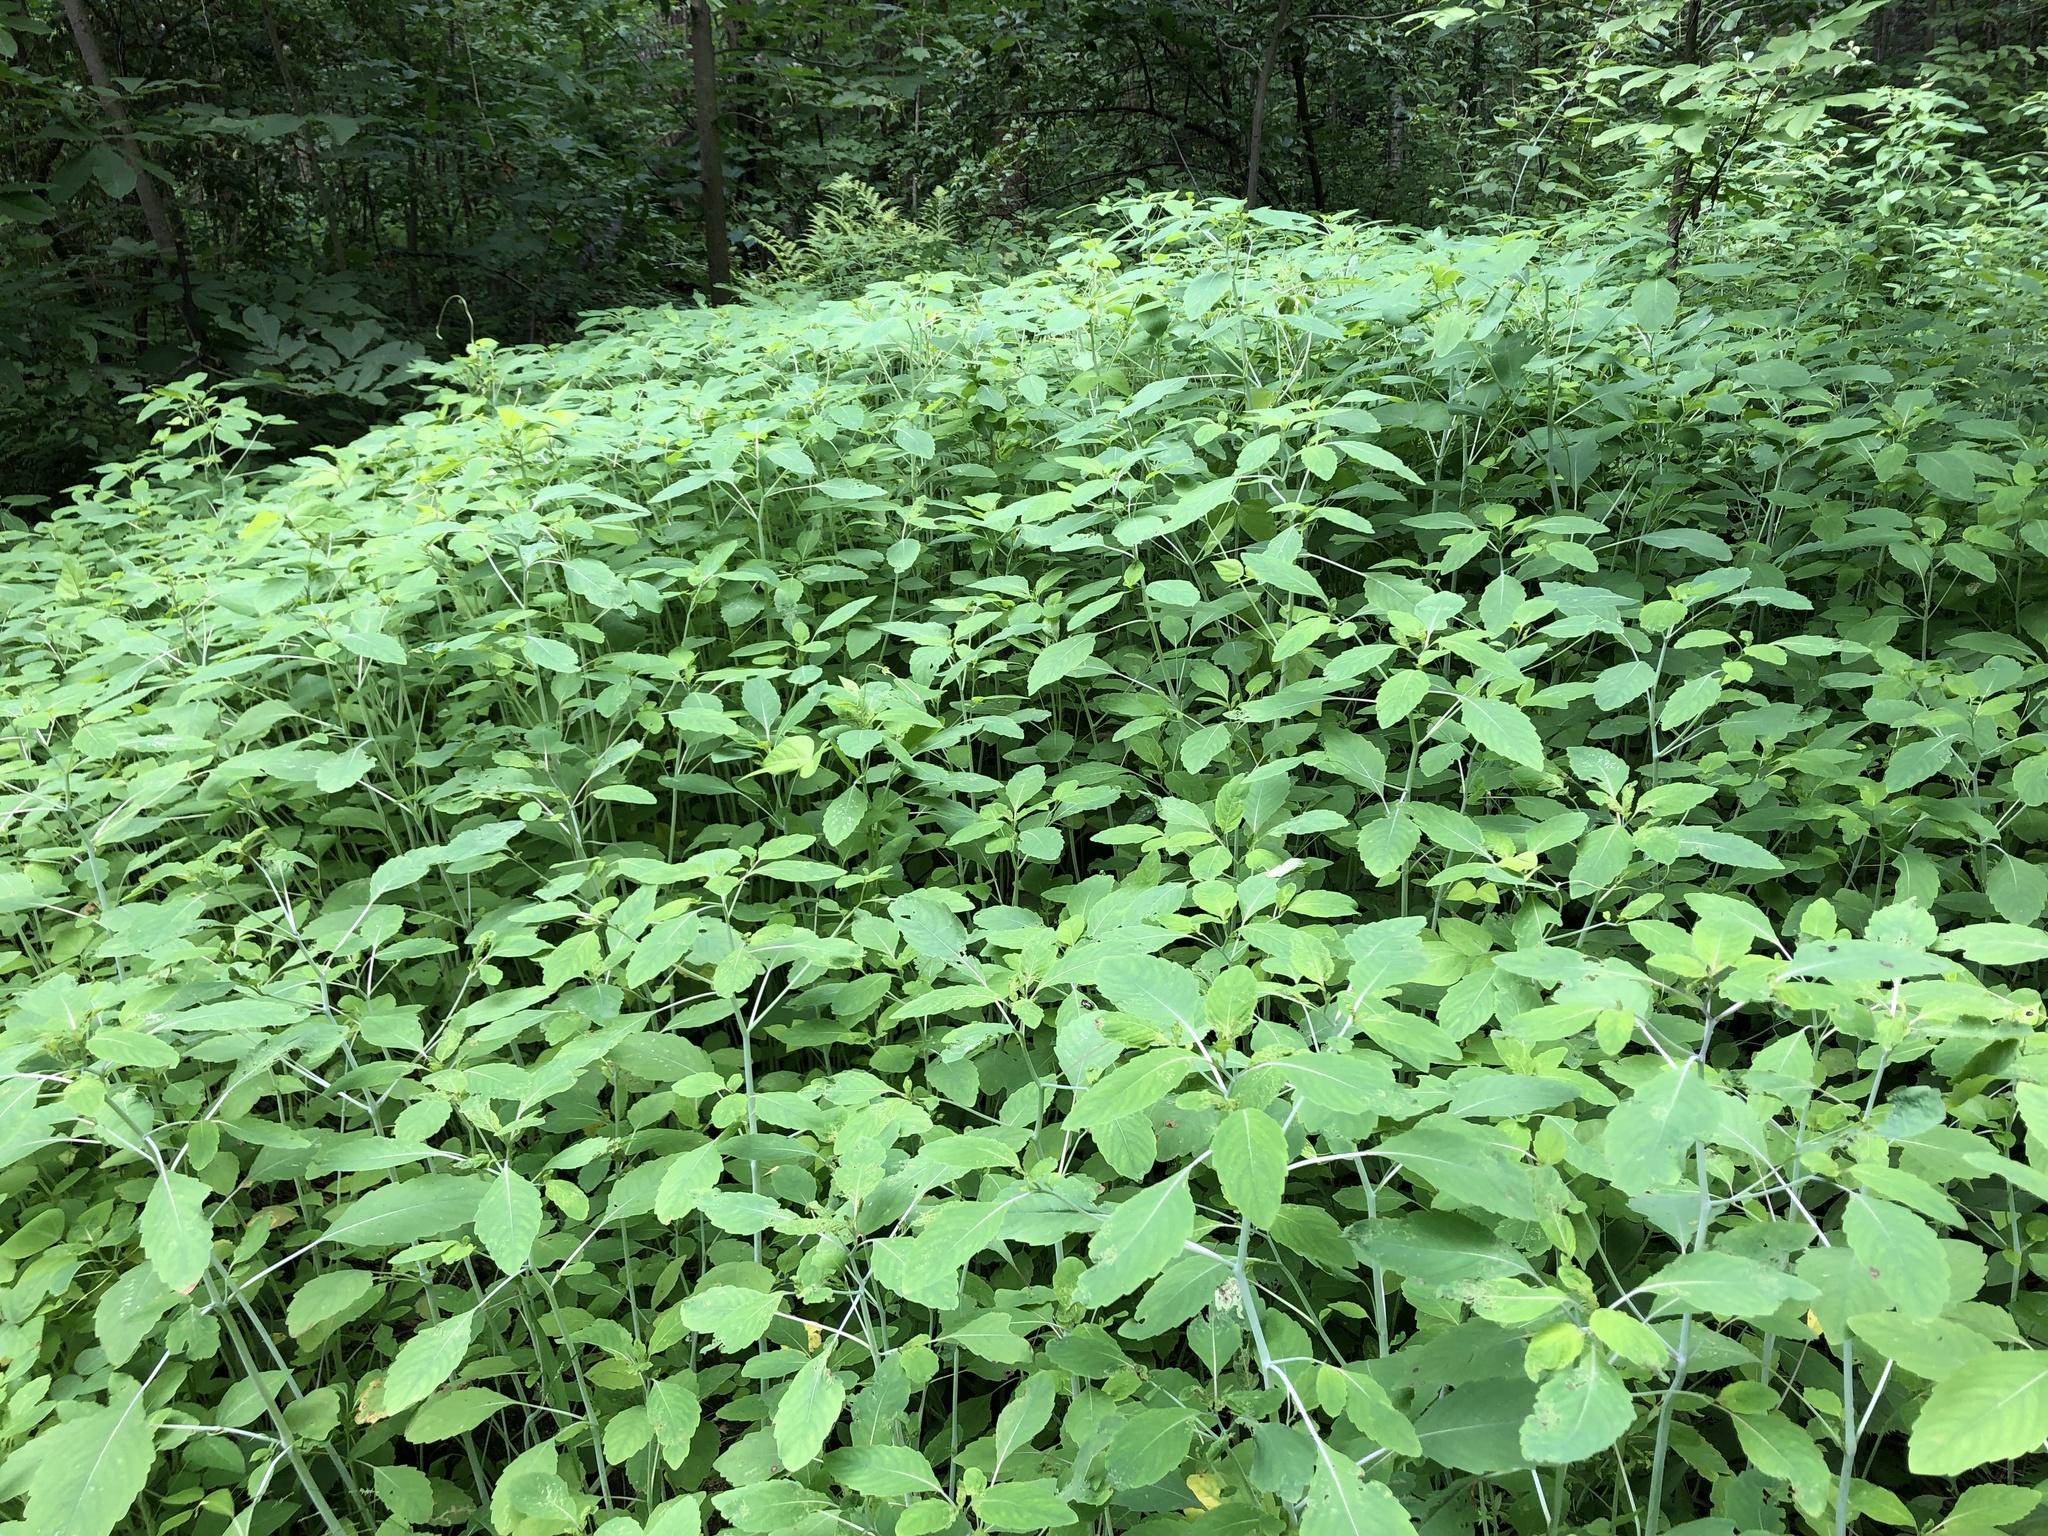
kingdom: Plantae
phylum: Tracheophyta
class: Magnoliopsida
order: Ericales
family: Balsaminaceae
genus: Impatiens
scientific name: Impatiens capensis
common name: Orange balsam
